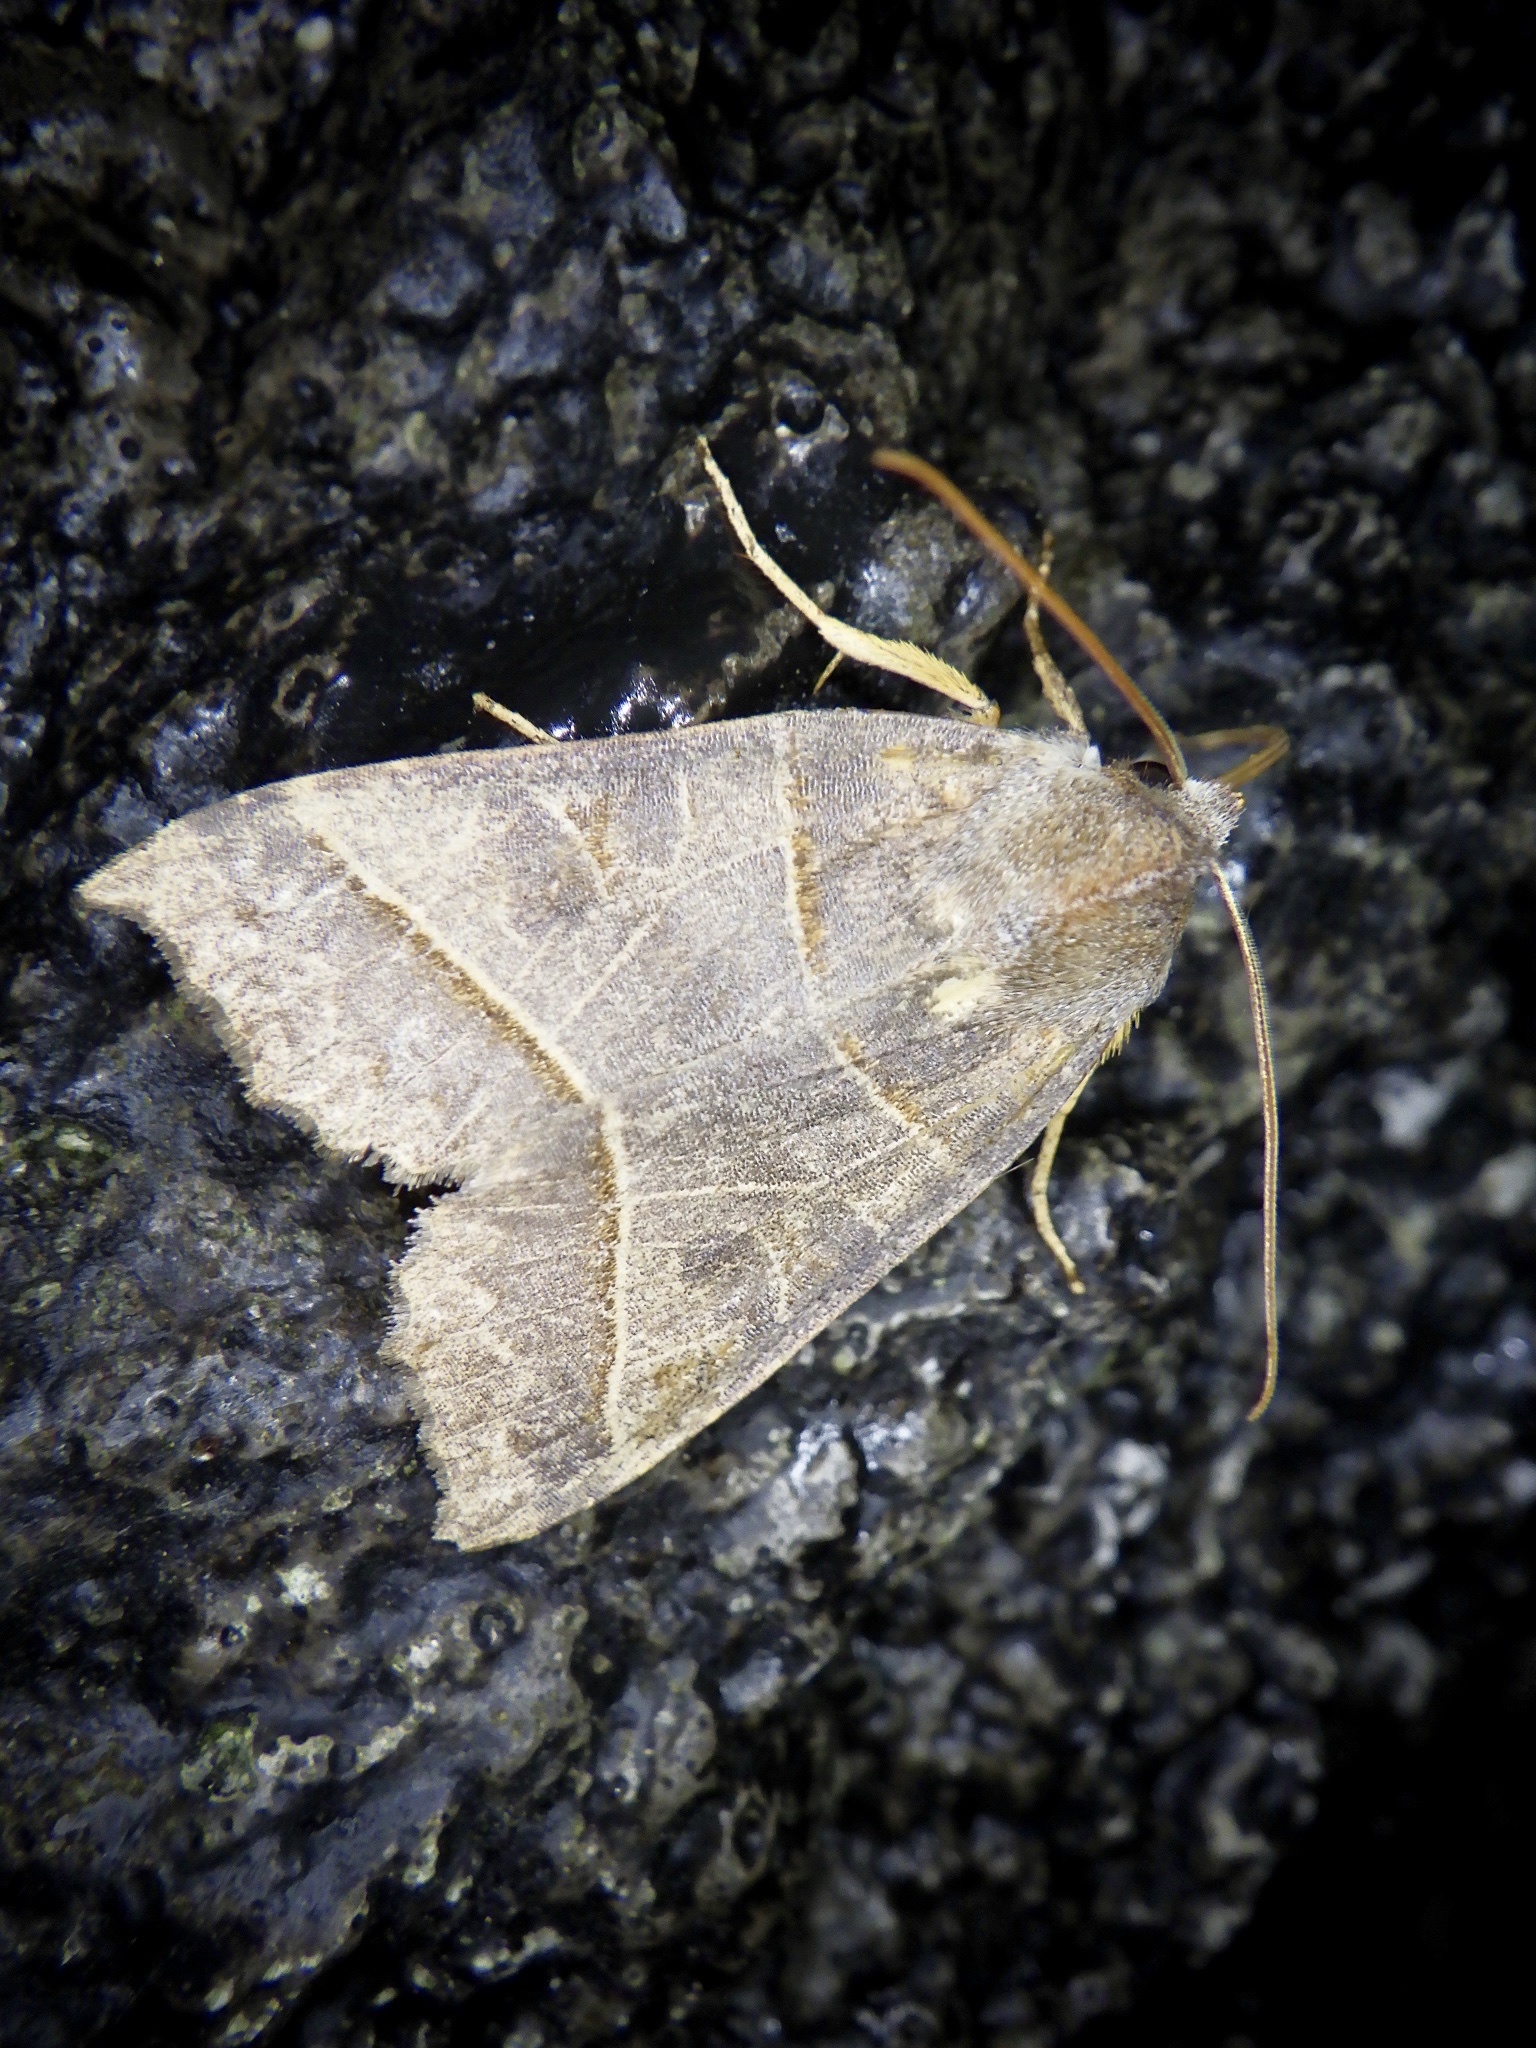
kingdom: Animalia
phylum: Arthropoda
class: Insecta
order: Lepidoptera
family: Noctuidae
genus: Telorta
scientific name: Telorta acuminata
